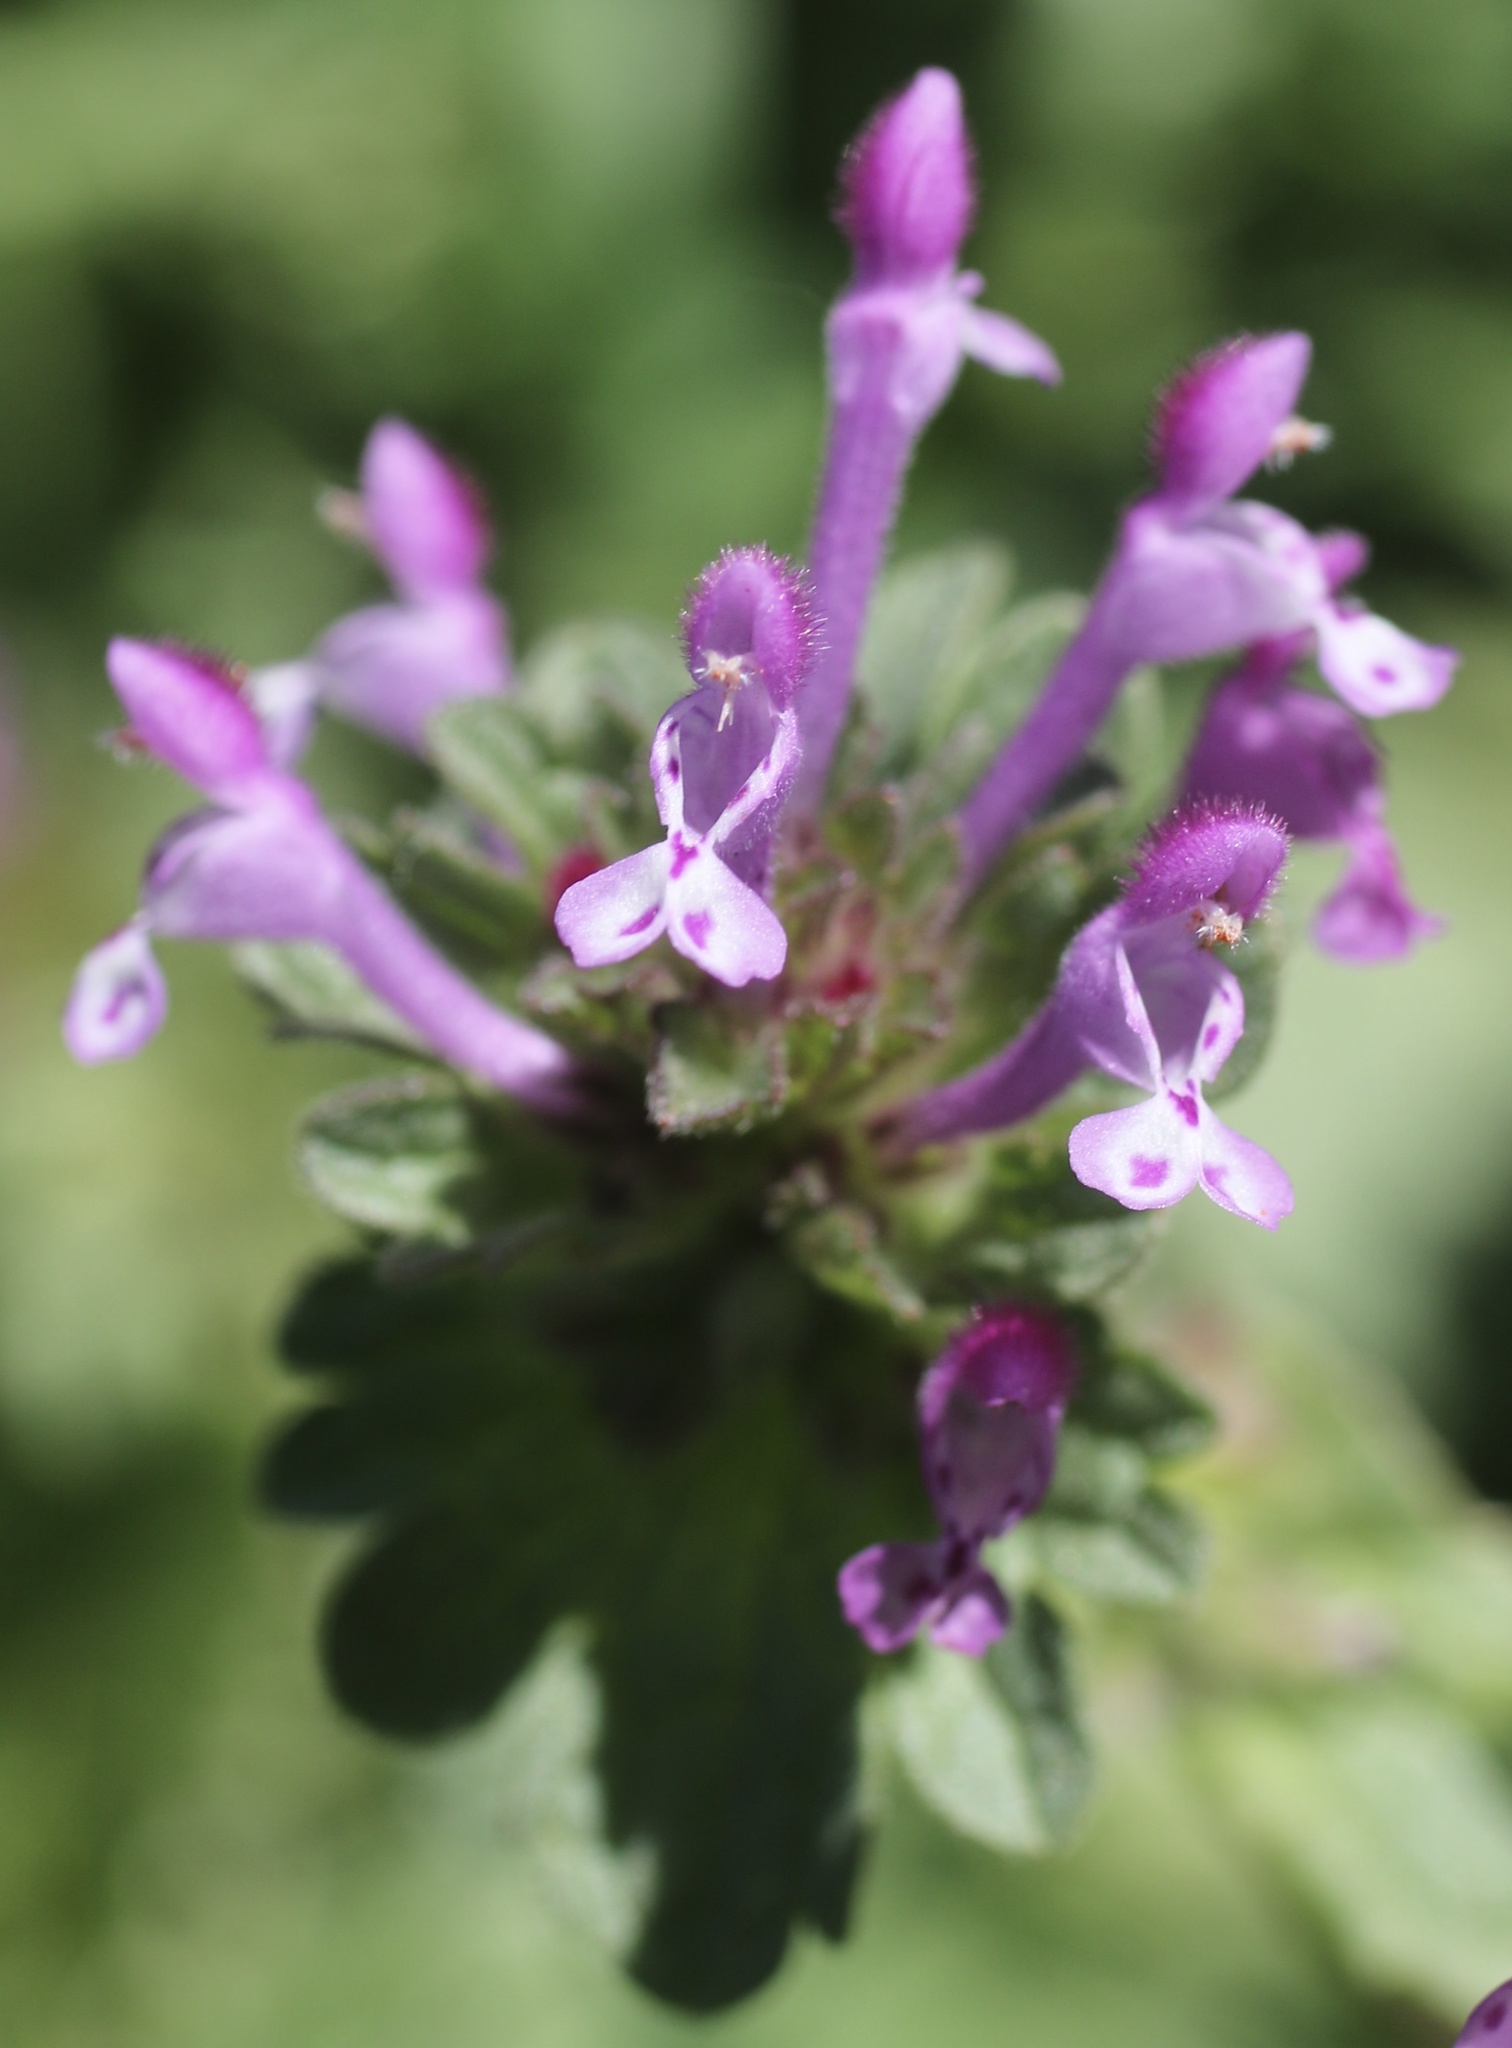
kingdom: Plantae
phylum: Tracheophyta
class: Magnoliopsida
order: Lamiales
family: Lamiaceae
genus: Lamium
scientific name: Lamium amplexicaule
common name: Henbit dead-nettle
